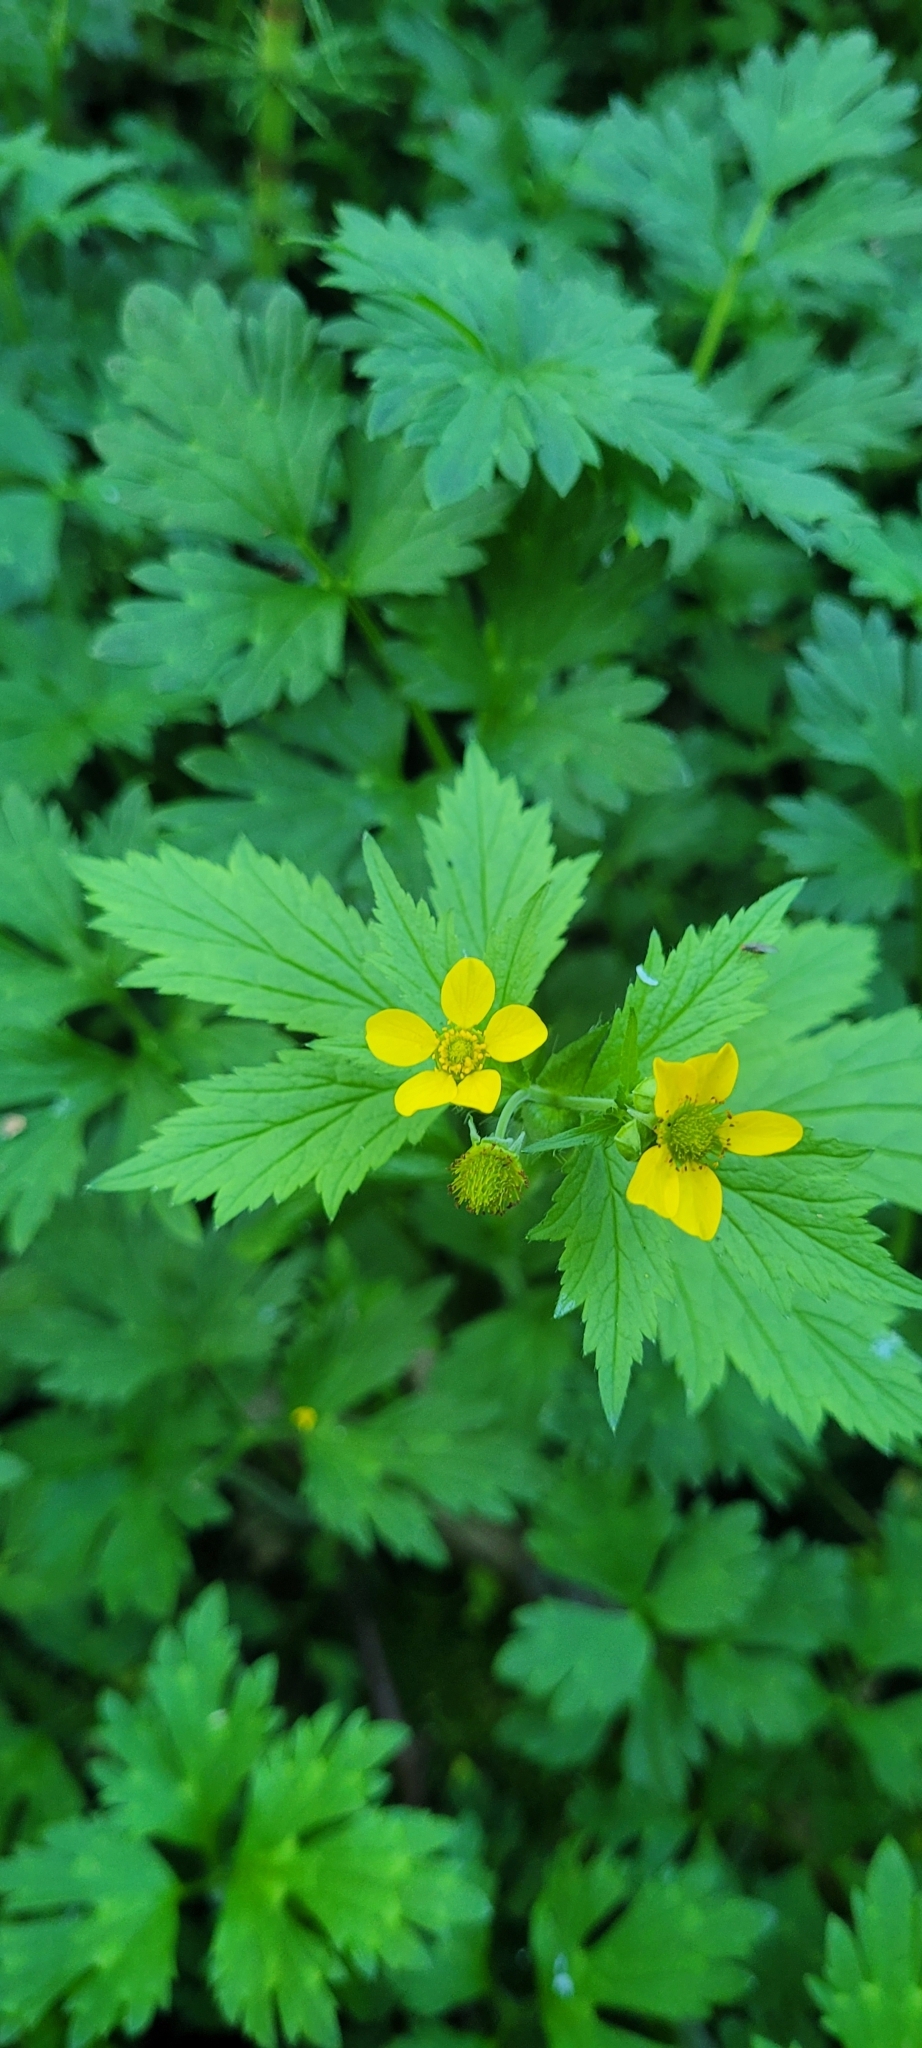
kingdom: Plantae
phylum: Tracheophyta
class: Magnoliopsida
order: Rosales
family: Rosaceae
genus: Geum
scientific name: Geum macrophyllum
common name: Large-leaved avens
